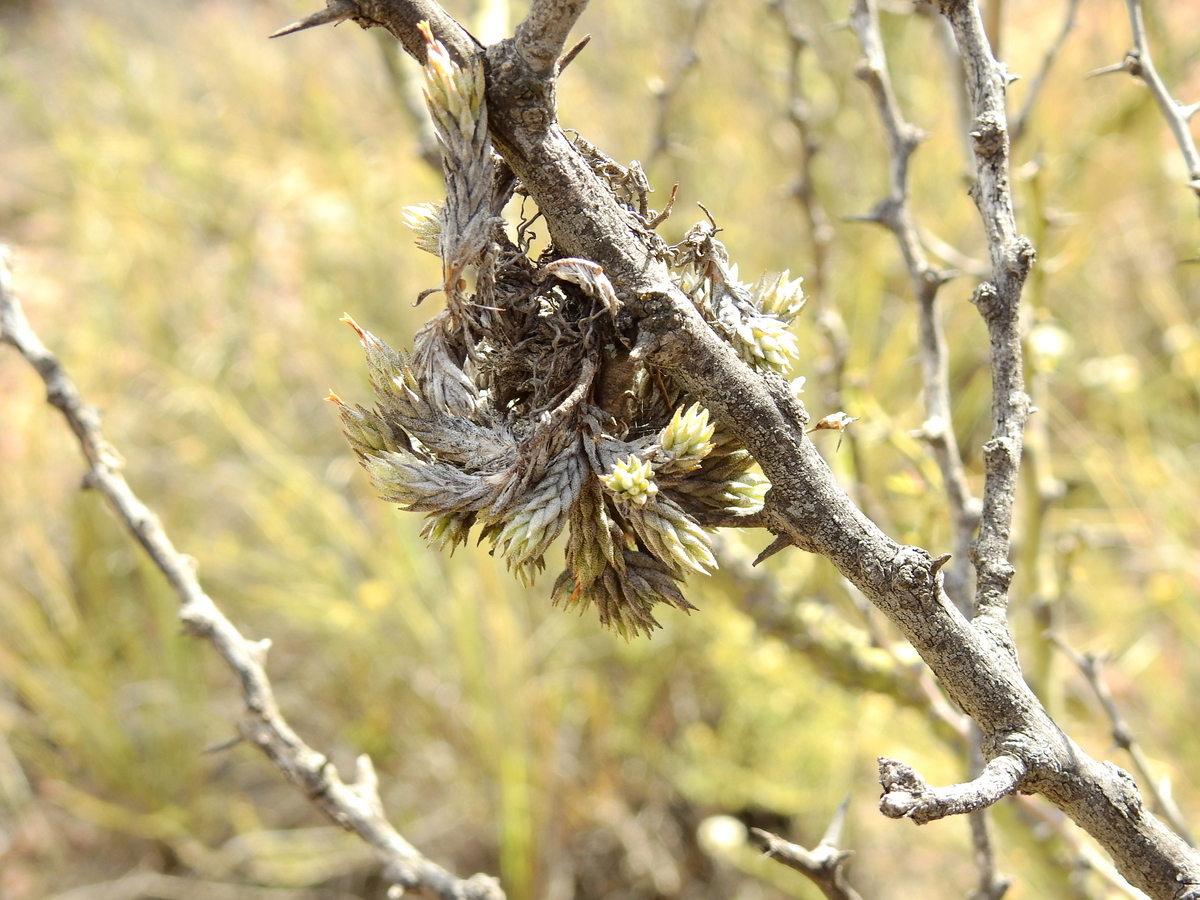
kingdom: Plantae
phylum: Tracheophyta
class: Liliopsida
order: Poales
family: Bromeliaceae
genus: Tillandsia
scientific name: Tillandsia pedicellata
